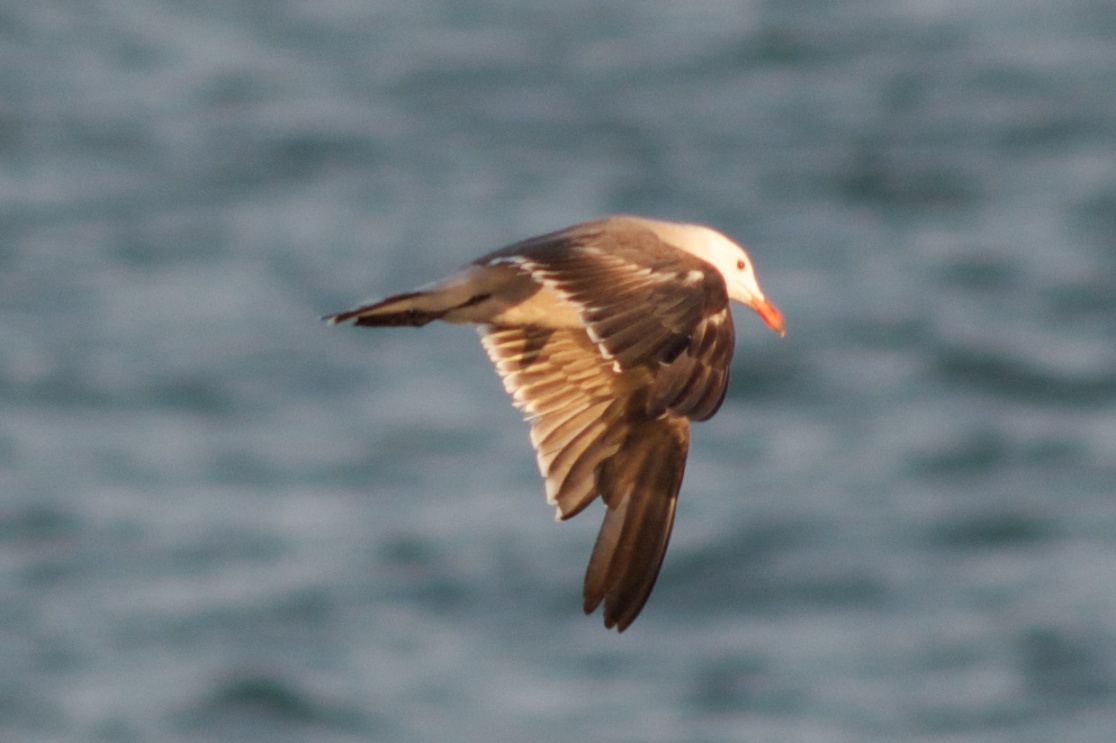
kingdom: Animalia
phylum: Chordata
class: Aves
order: Charadriiformes
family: Laridae
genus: Larus
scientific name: Larus heermanni
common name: Heermann's gull
